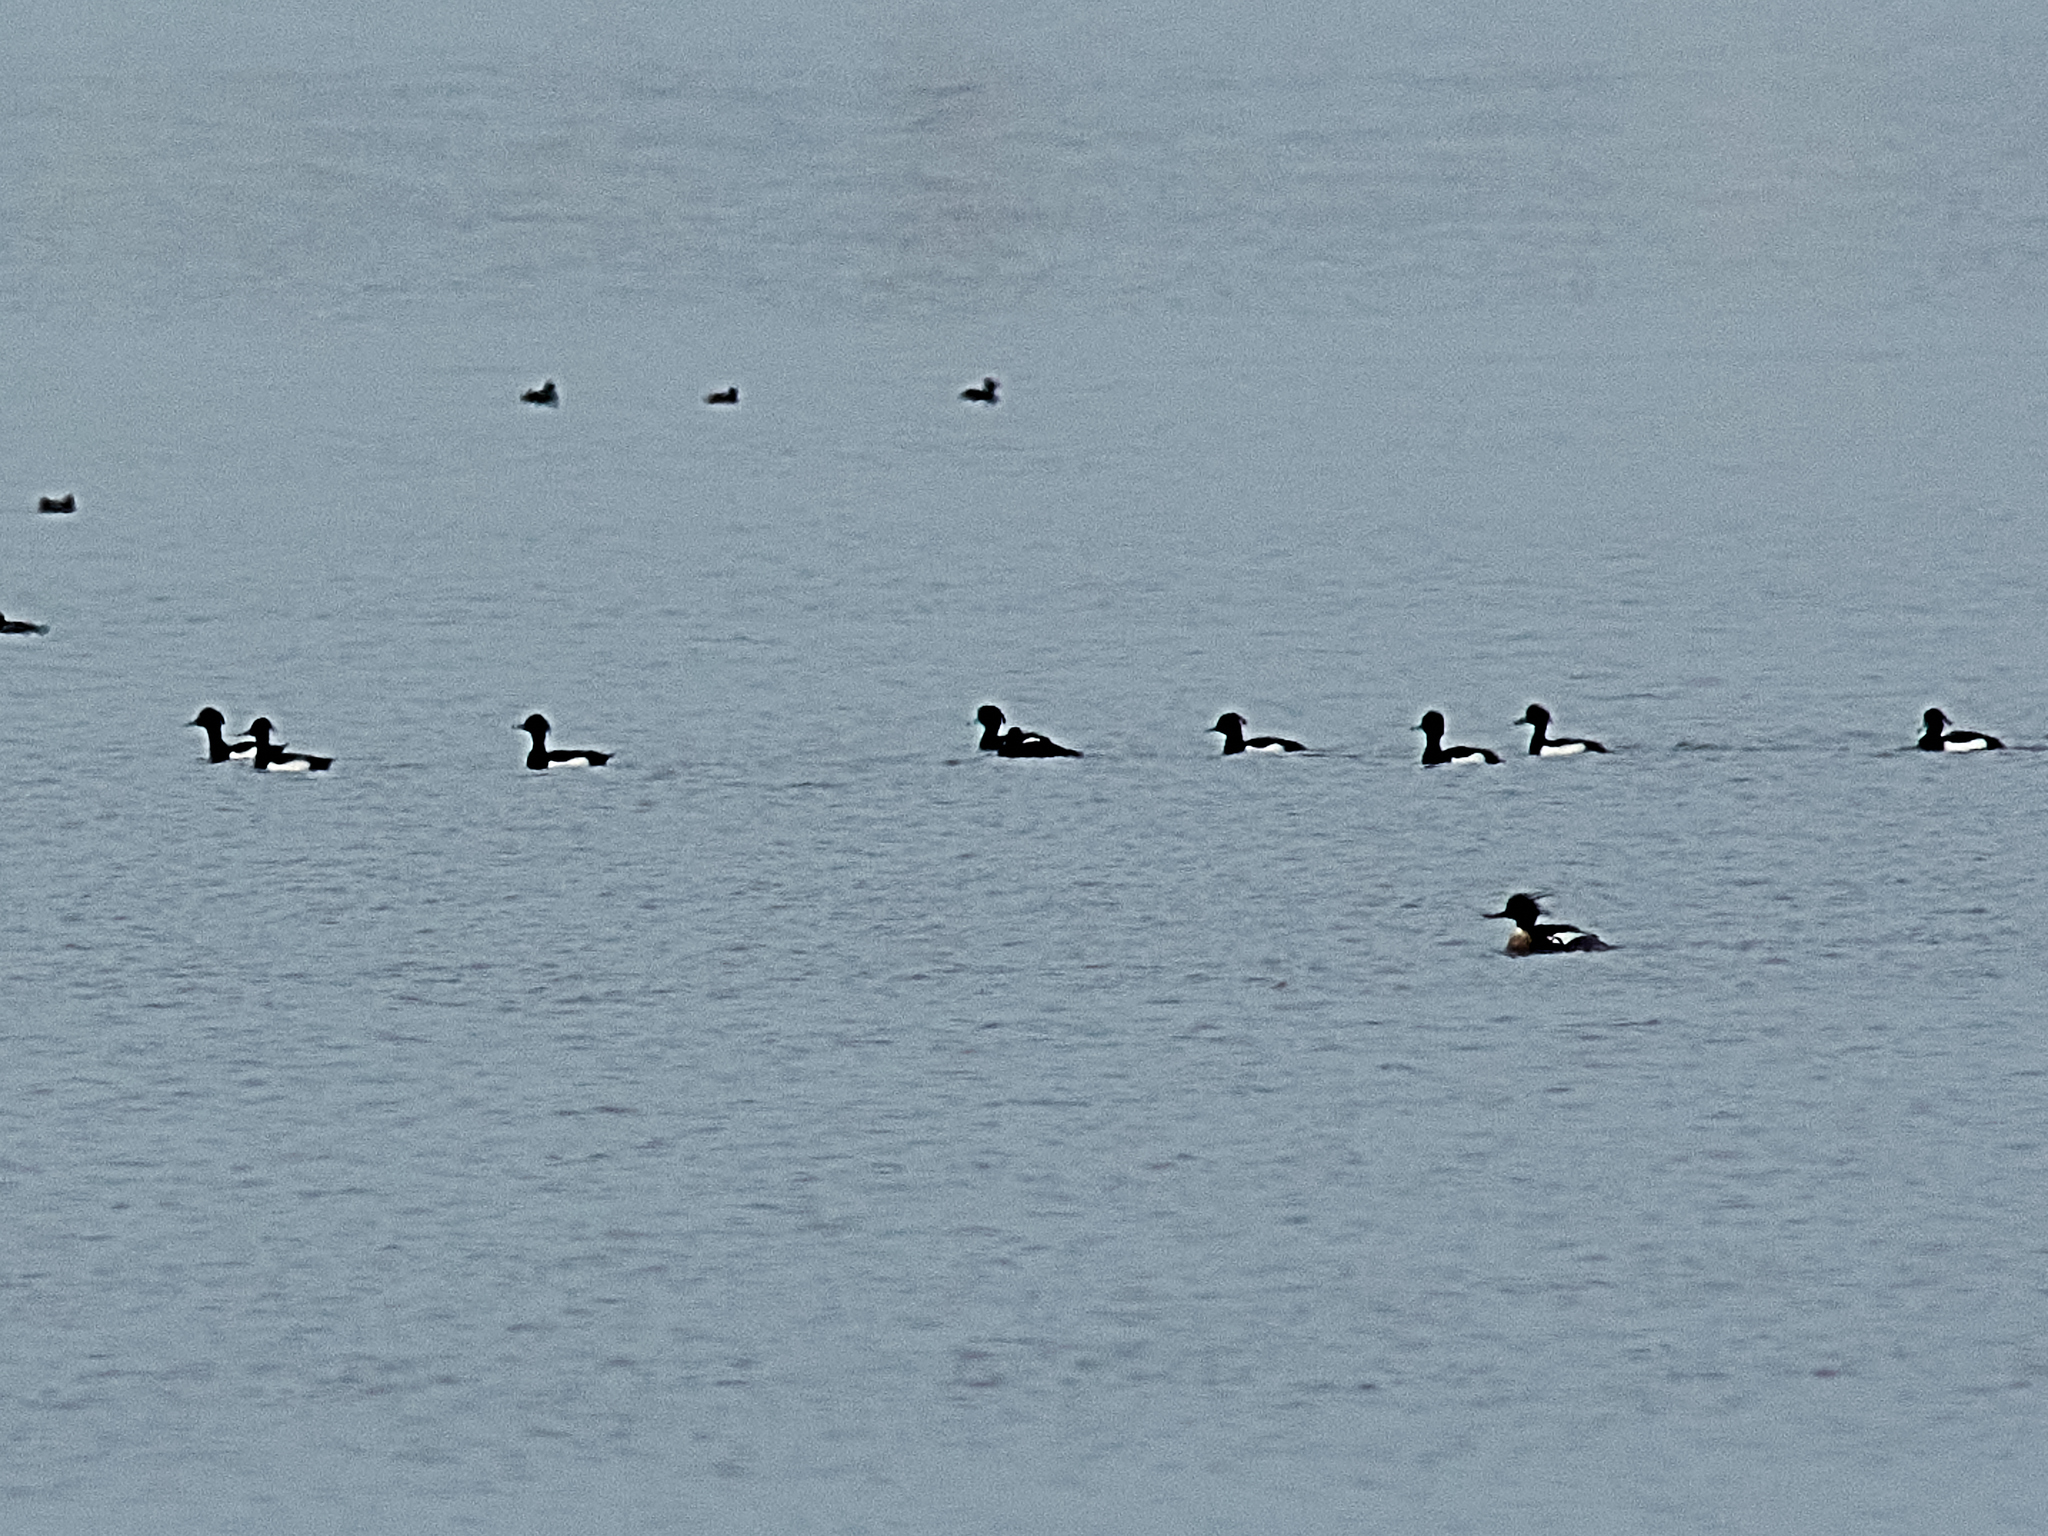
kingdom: Animalia
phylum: Chordata
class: Aves
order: Anseriformes
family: Anatidae
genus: Aythya
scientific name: Aythya fuligula
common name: Tufted duck
